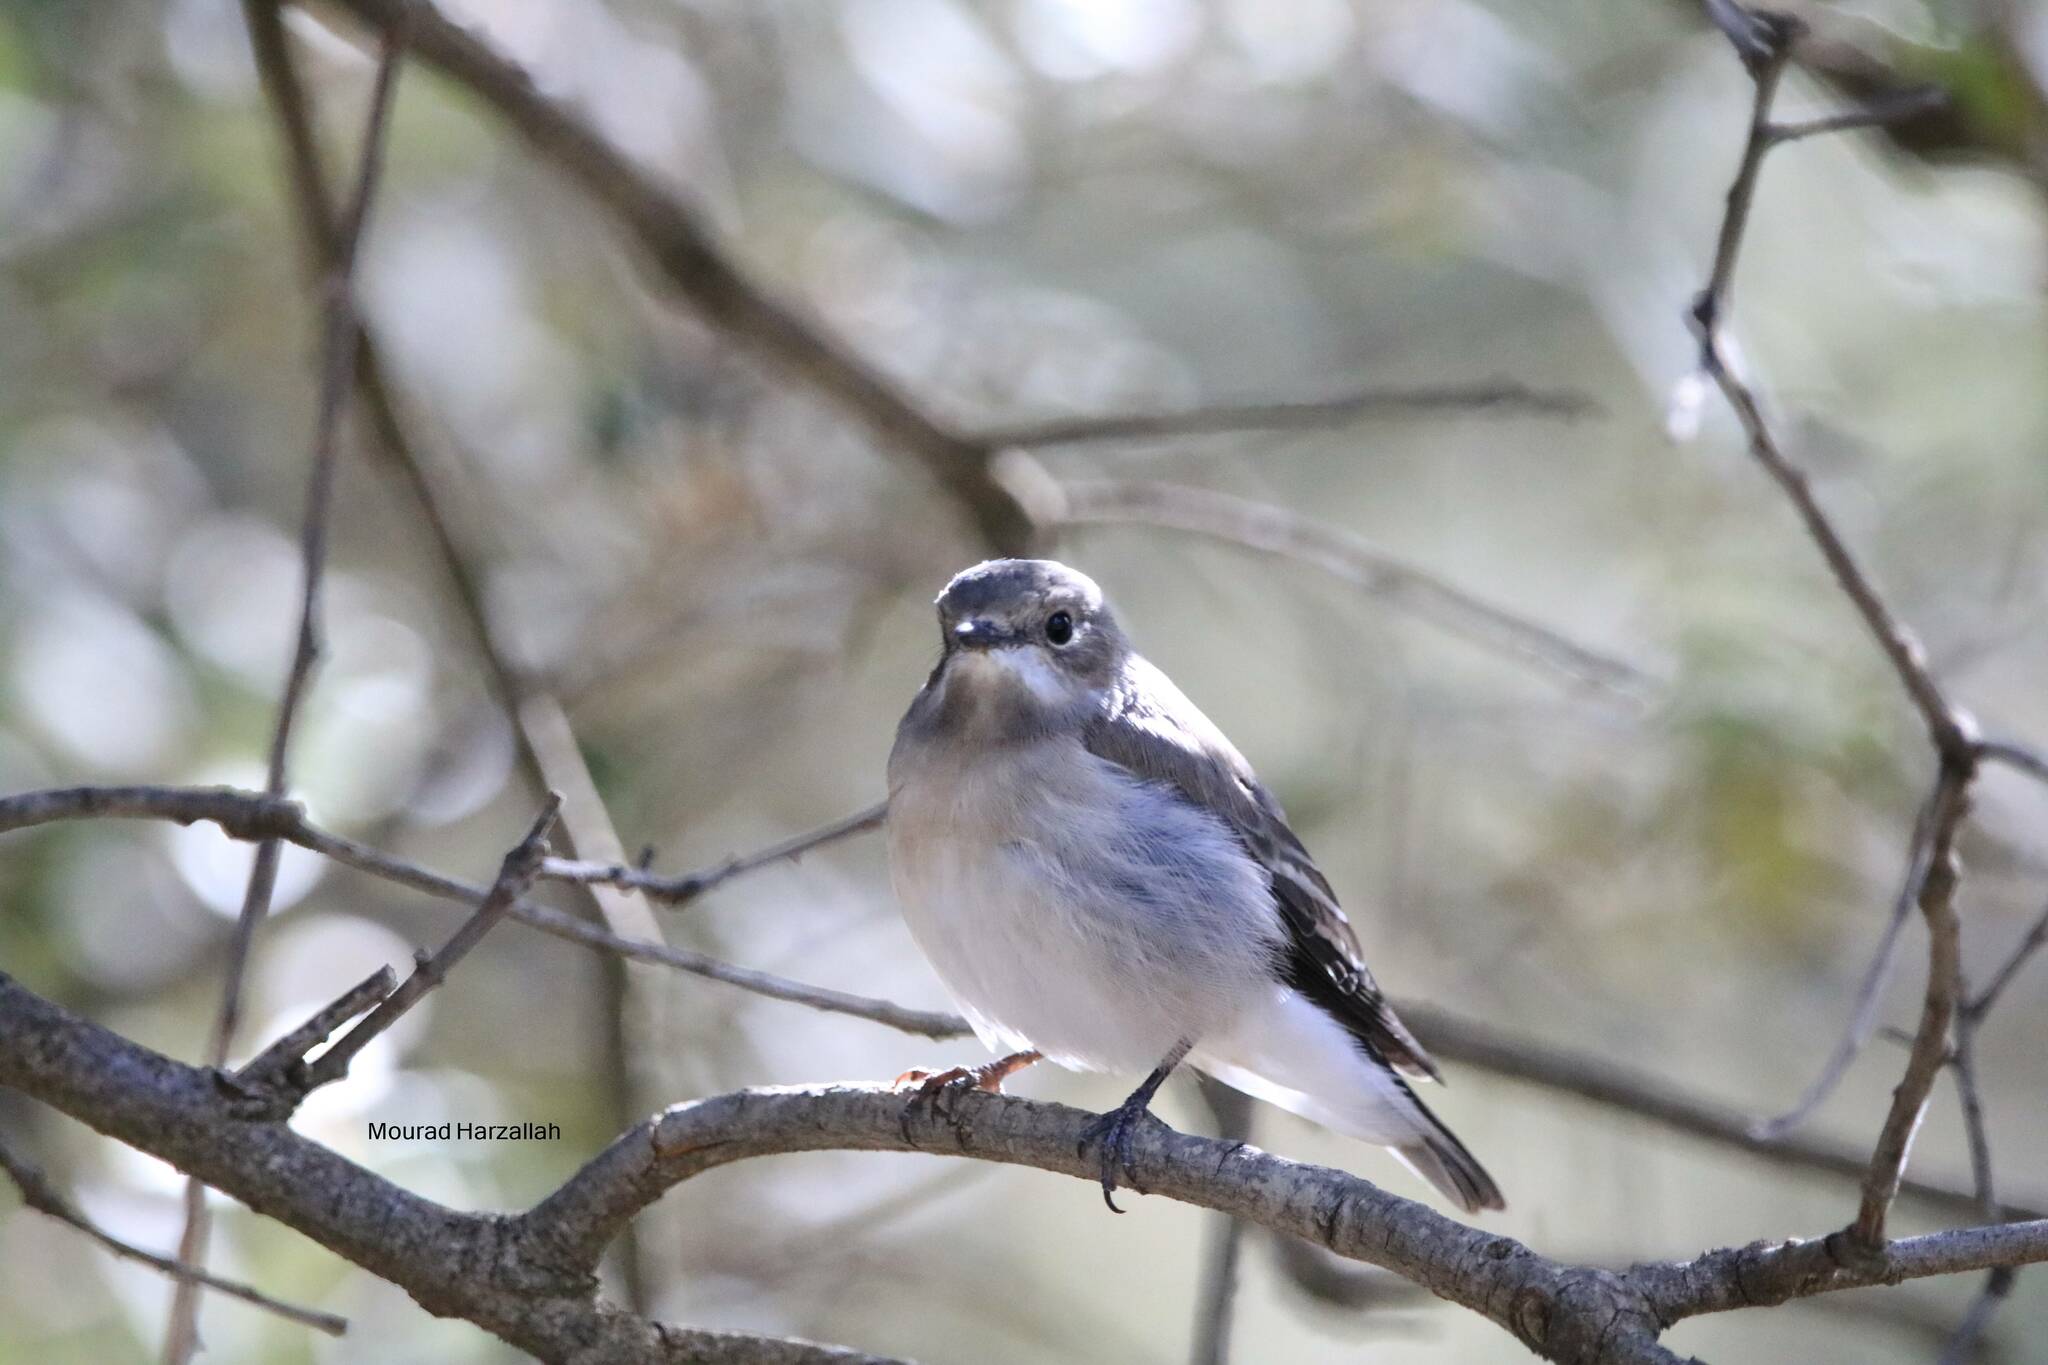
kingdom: Animalia
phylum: Chordata
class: Aves
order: Passeriformes
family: Muscicapidae
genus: Ficedula
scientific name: Ficedula speculigera
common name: Atlas pied flycatcher
